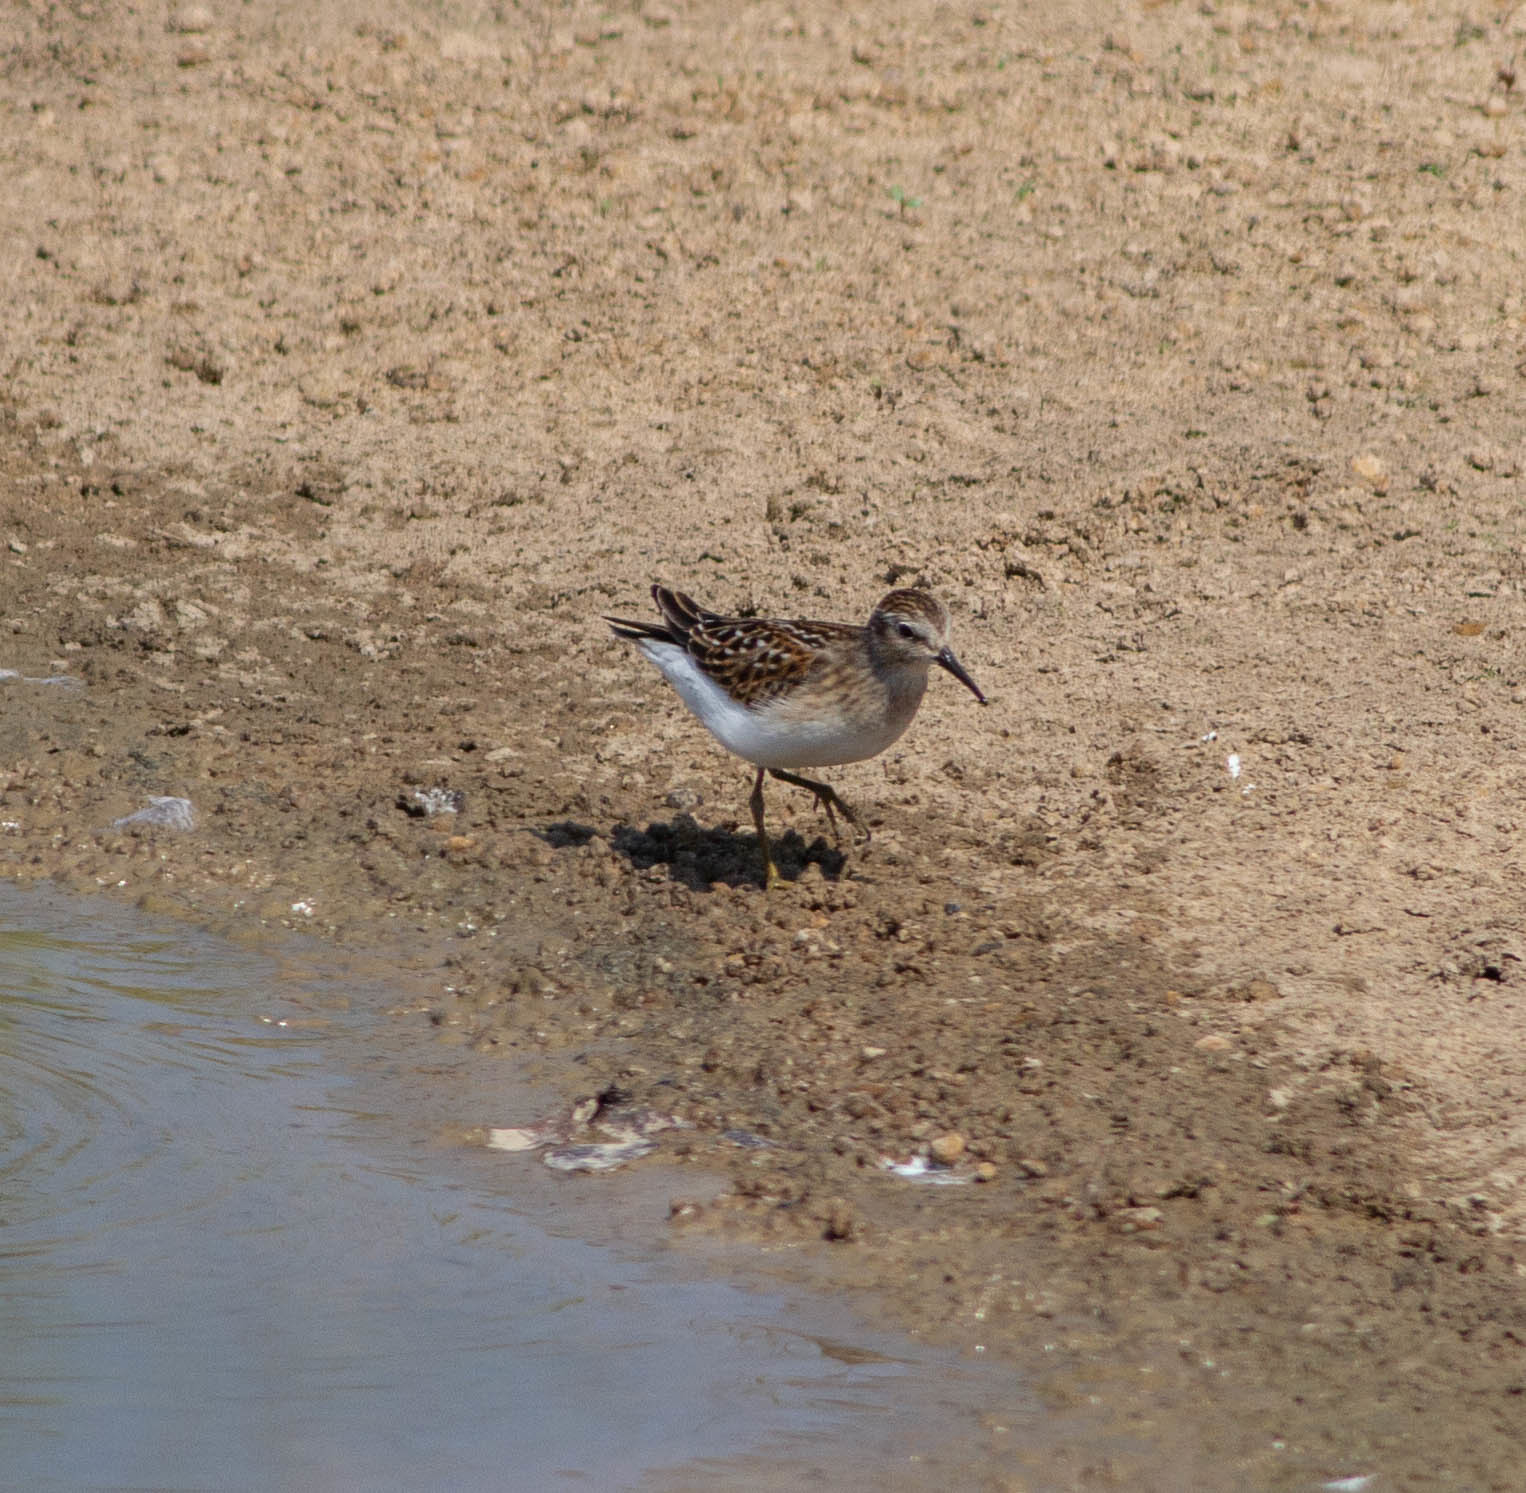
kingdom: Animalia
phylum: Chordata
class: Aves
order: Charadriiformes
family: Scolopacidae
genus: Calidris
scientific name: Calidris minutilla
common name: Least sandpiper
